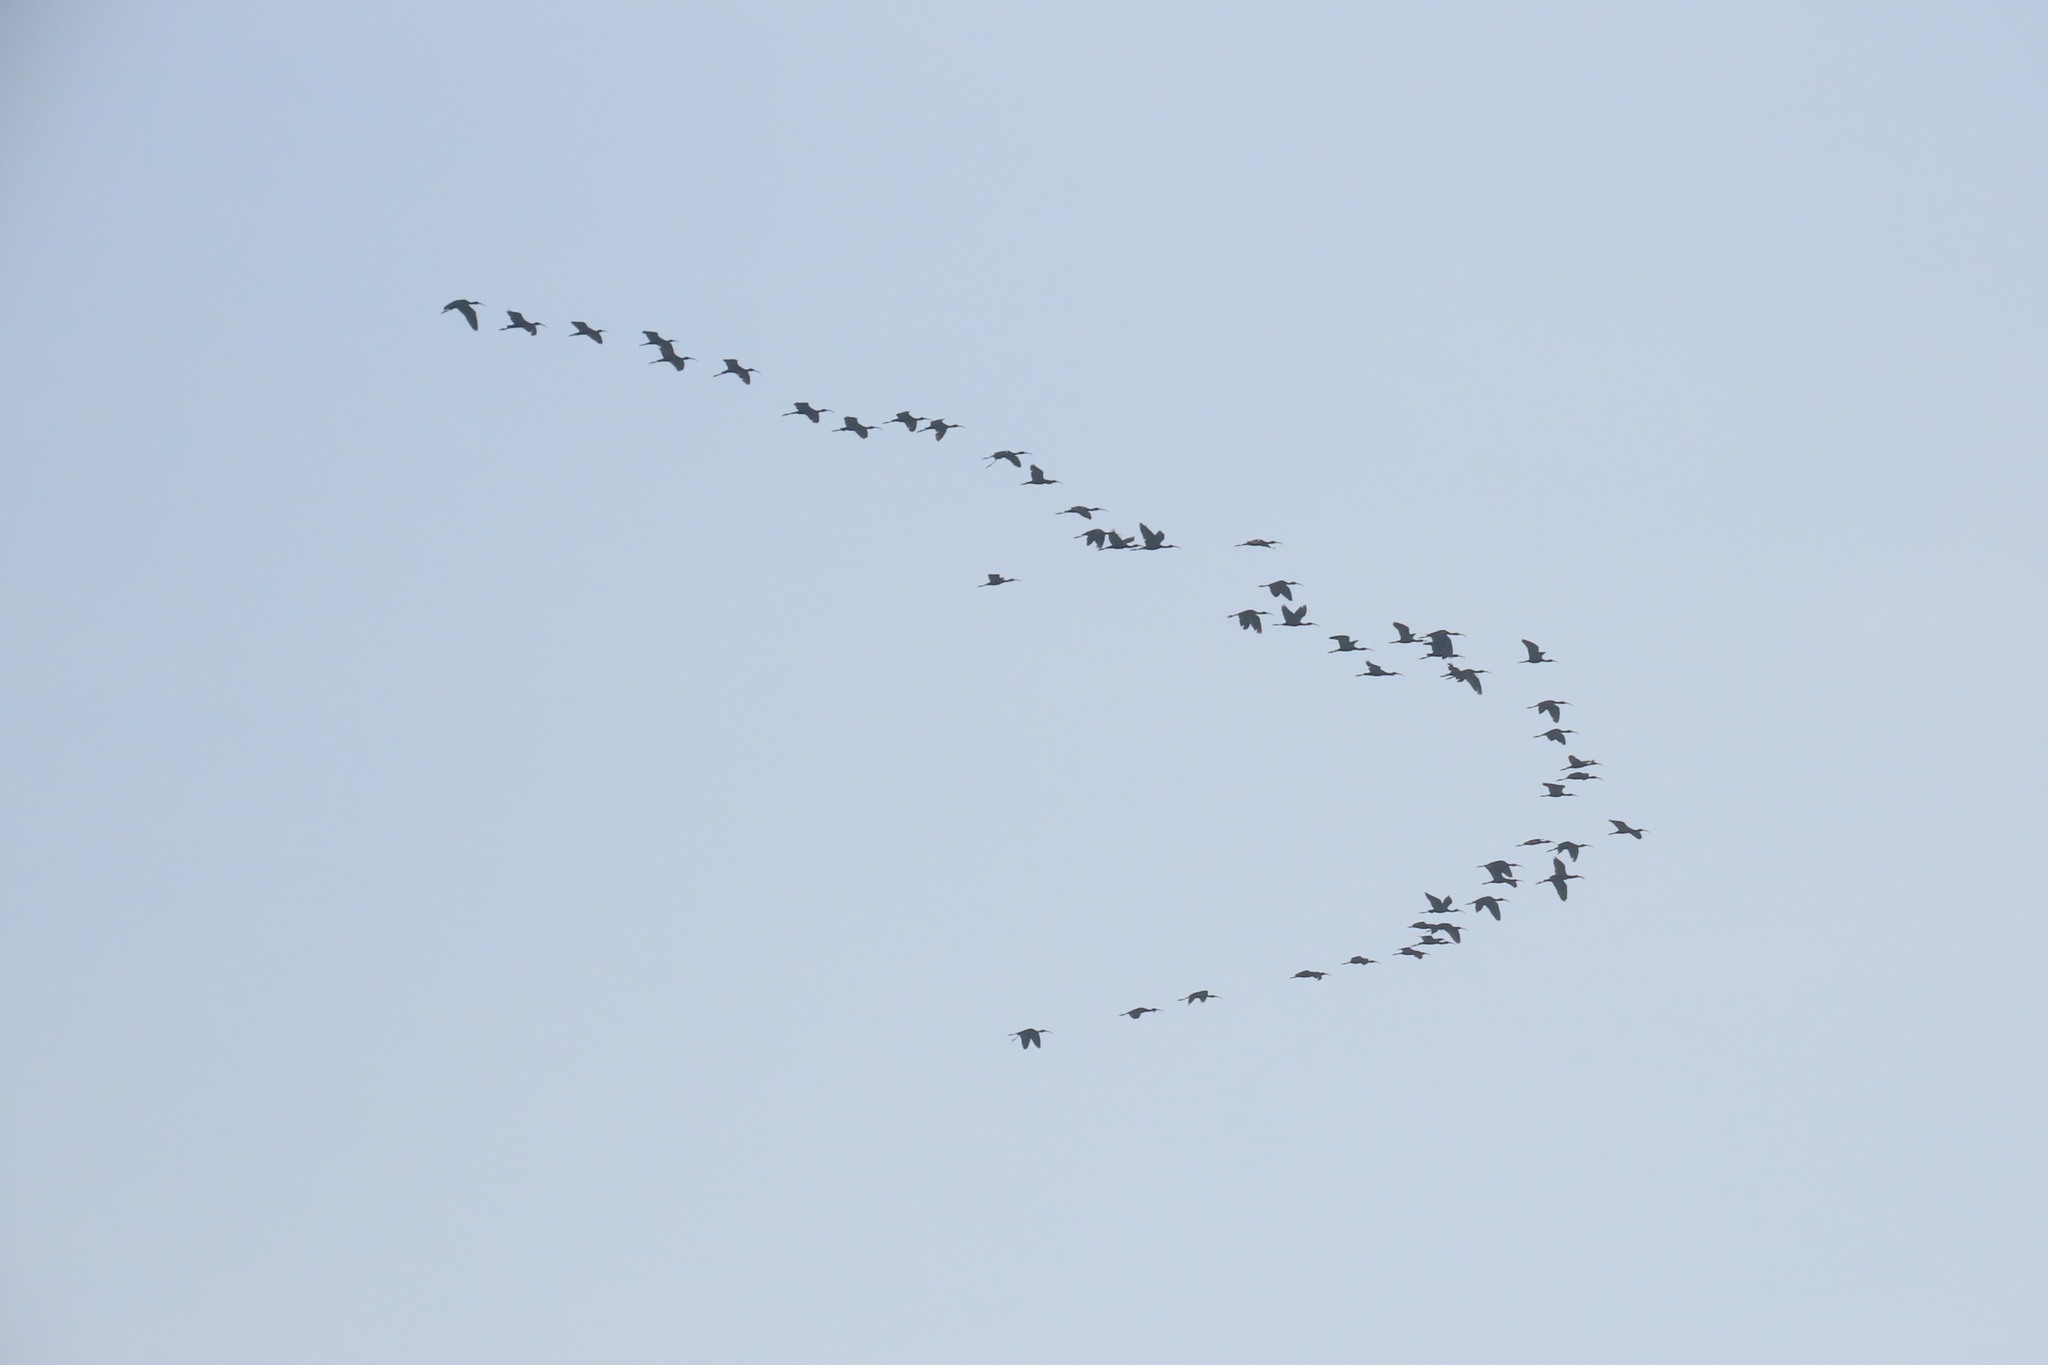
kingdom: Animalia
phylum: Chordata
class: Aves
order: Pelecaniformes
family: Threskiornithidae
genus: Plegadis
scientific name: Plegadis falcinellus
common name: Glossy ibis
